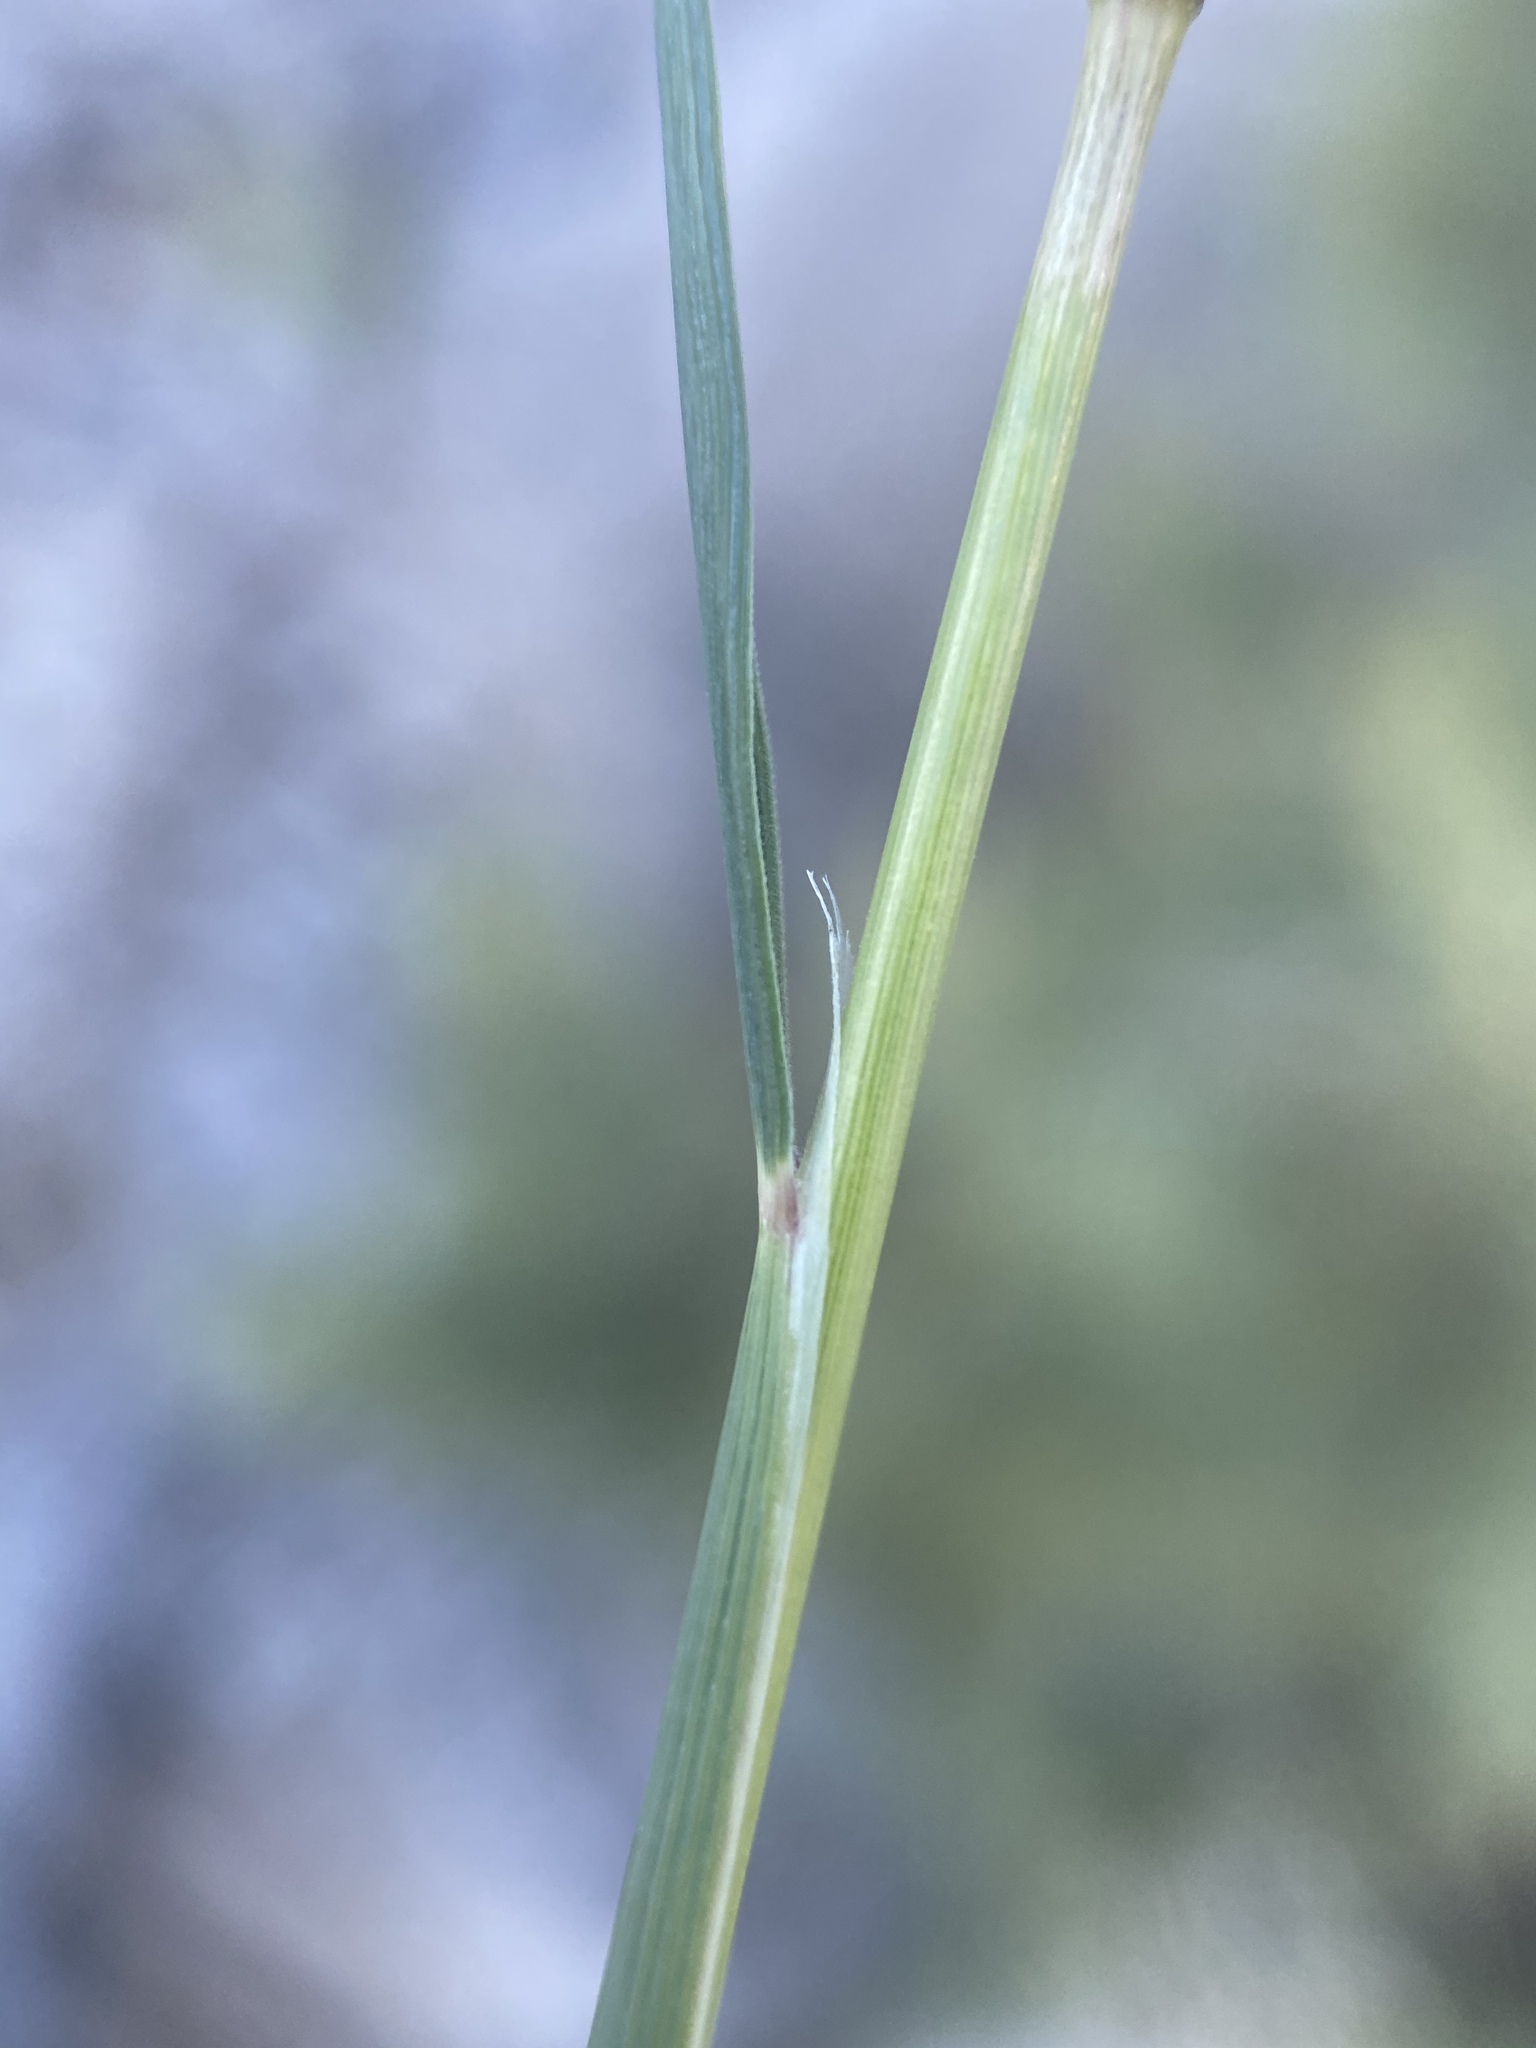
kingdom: Plantae
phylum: Tracheophyta
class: Liliopsida
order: Poales
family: Poaceae
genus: Hesperostipa
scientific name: Hesperostipa comata
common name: Needle-and-thread grass
